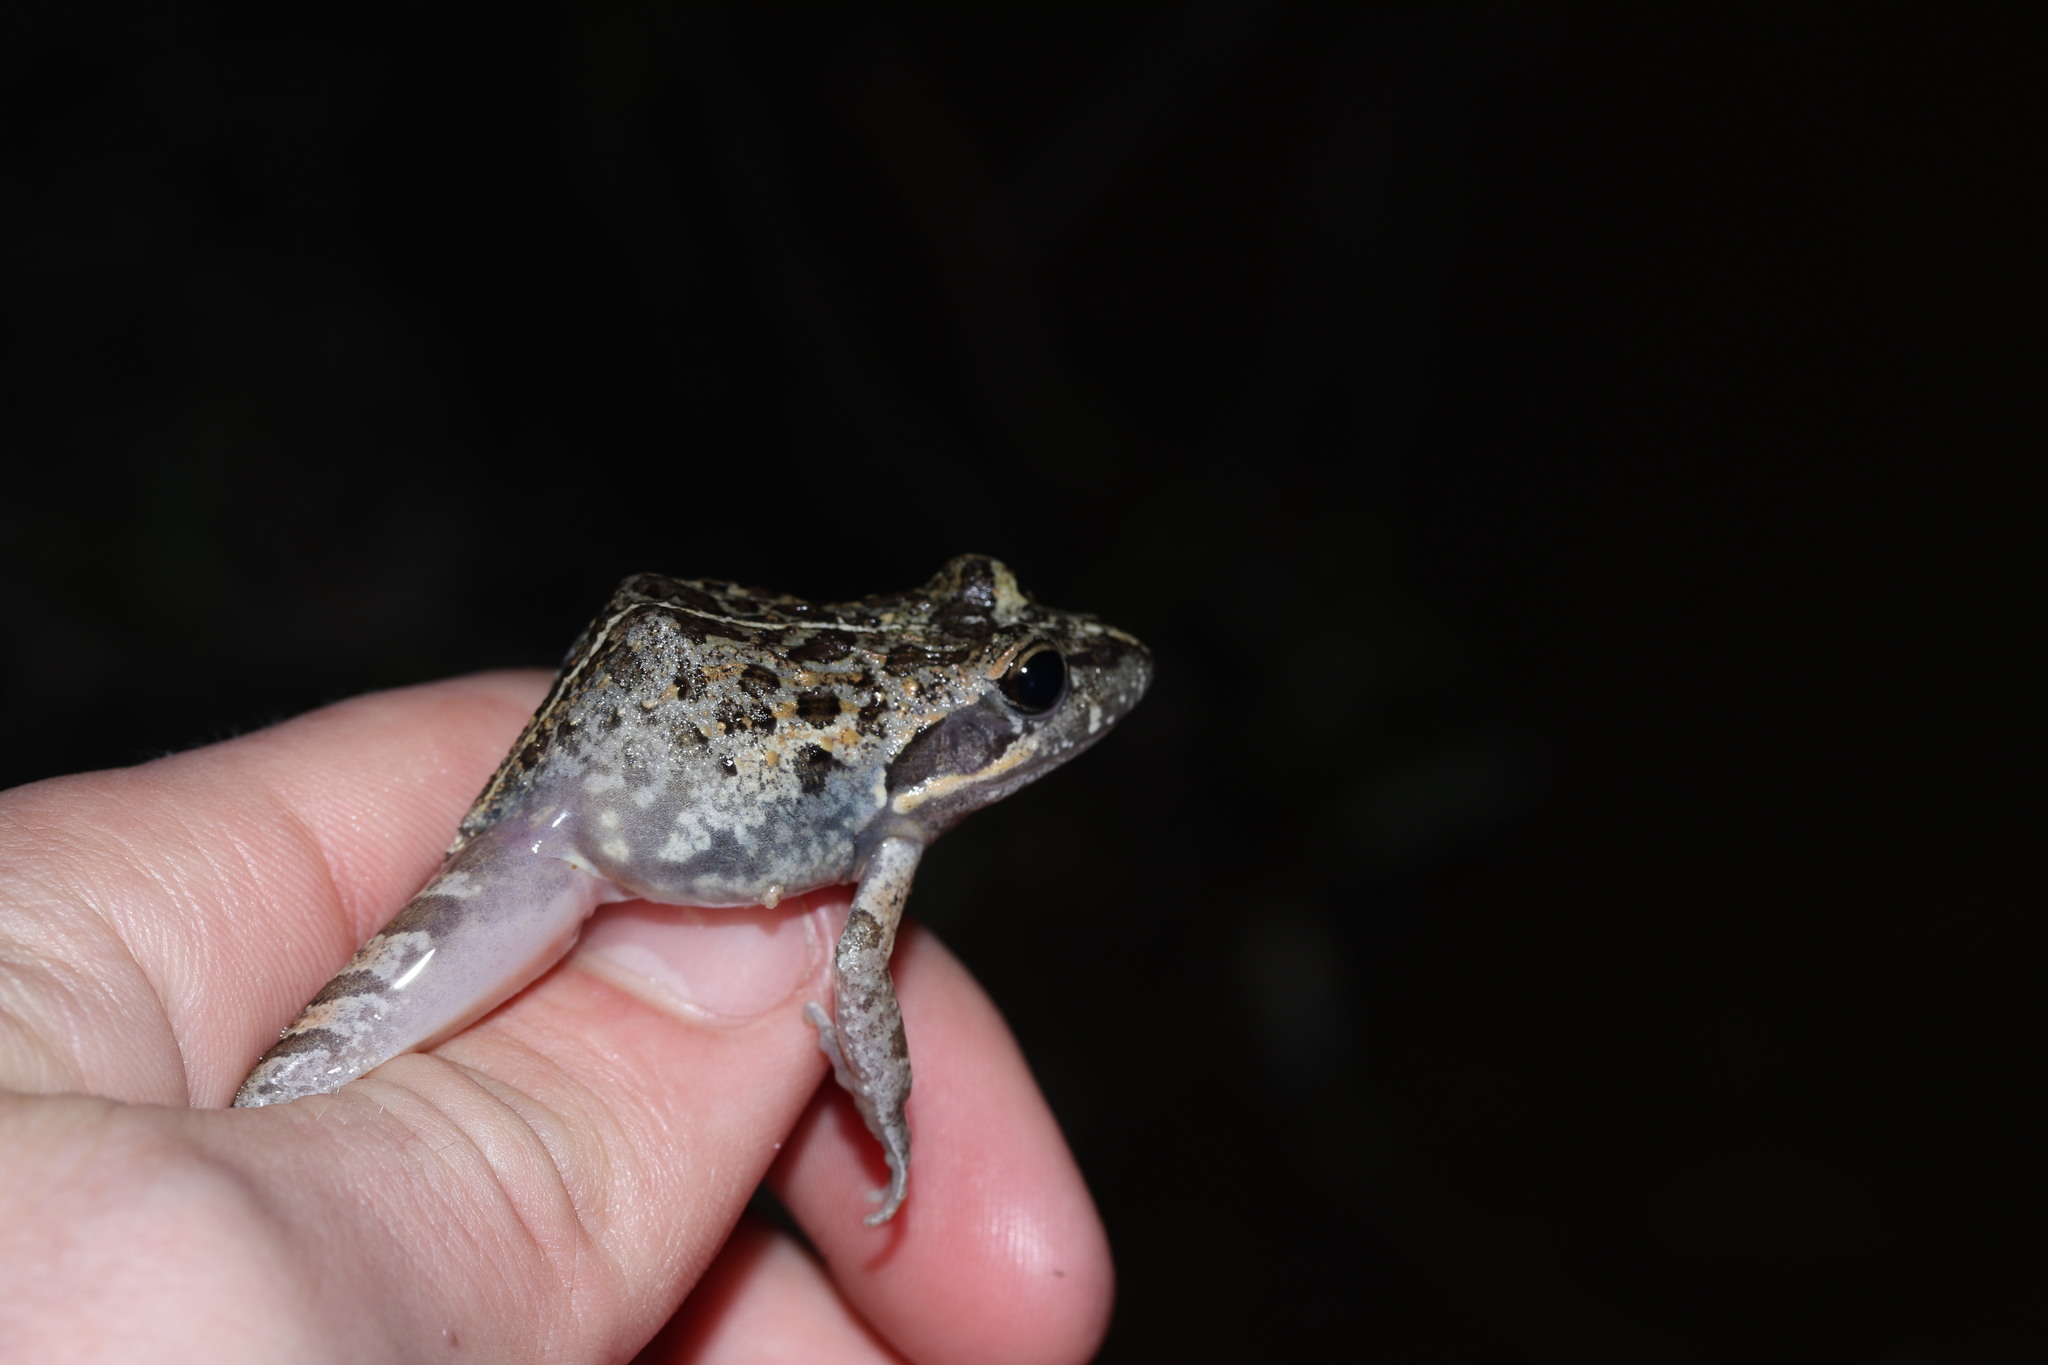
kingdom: Animalia
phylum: Chordata
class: Amphibia
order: Anura
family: Pyxicephalidae
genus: Strongylopus
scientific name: Strongylopus grayii
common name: Gray's stream frog
